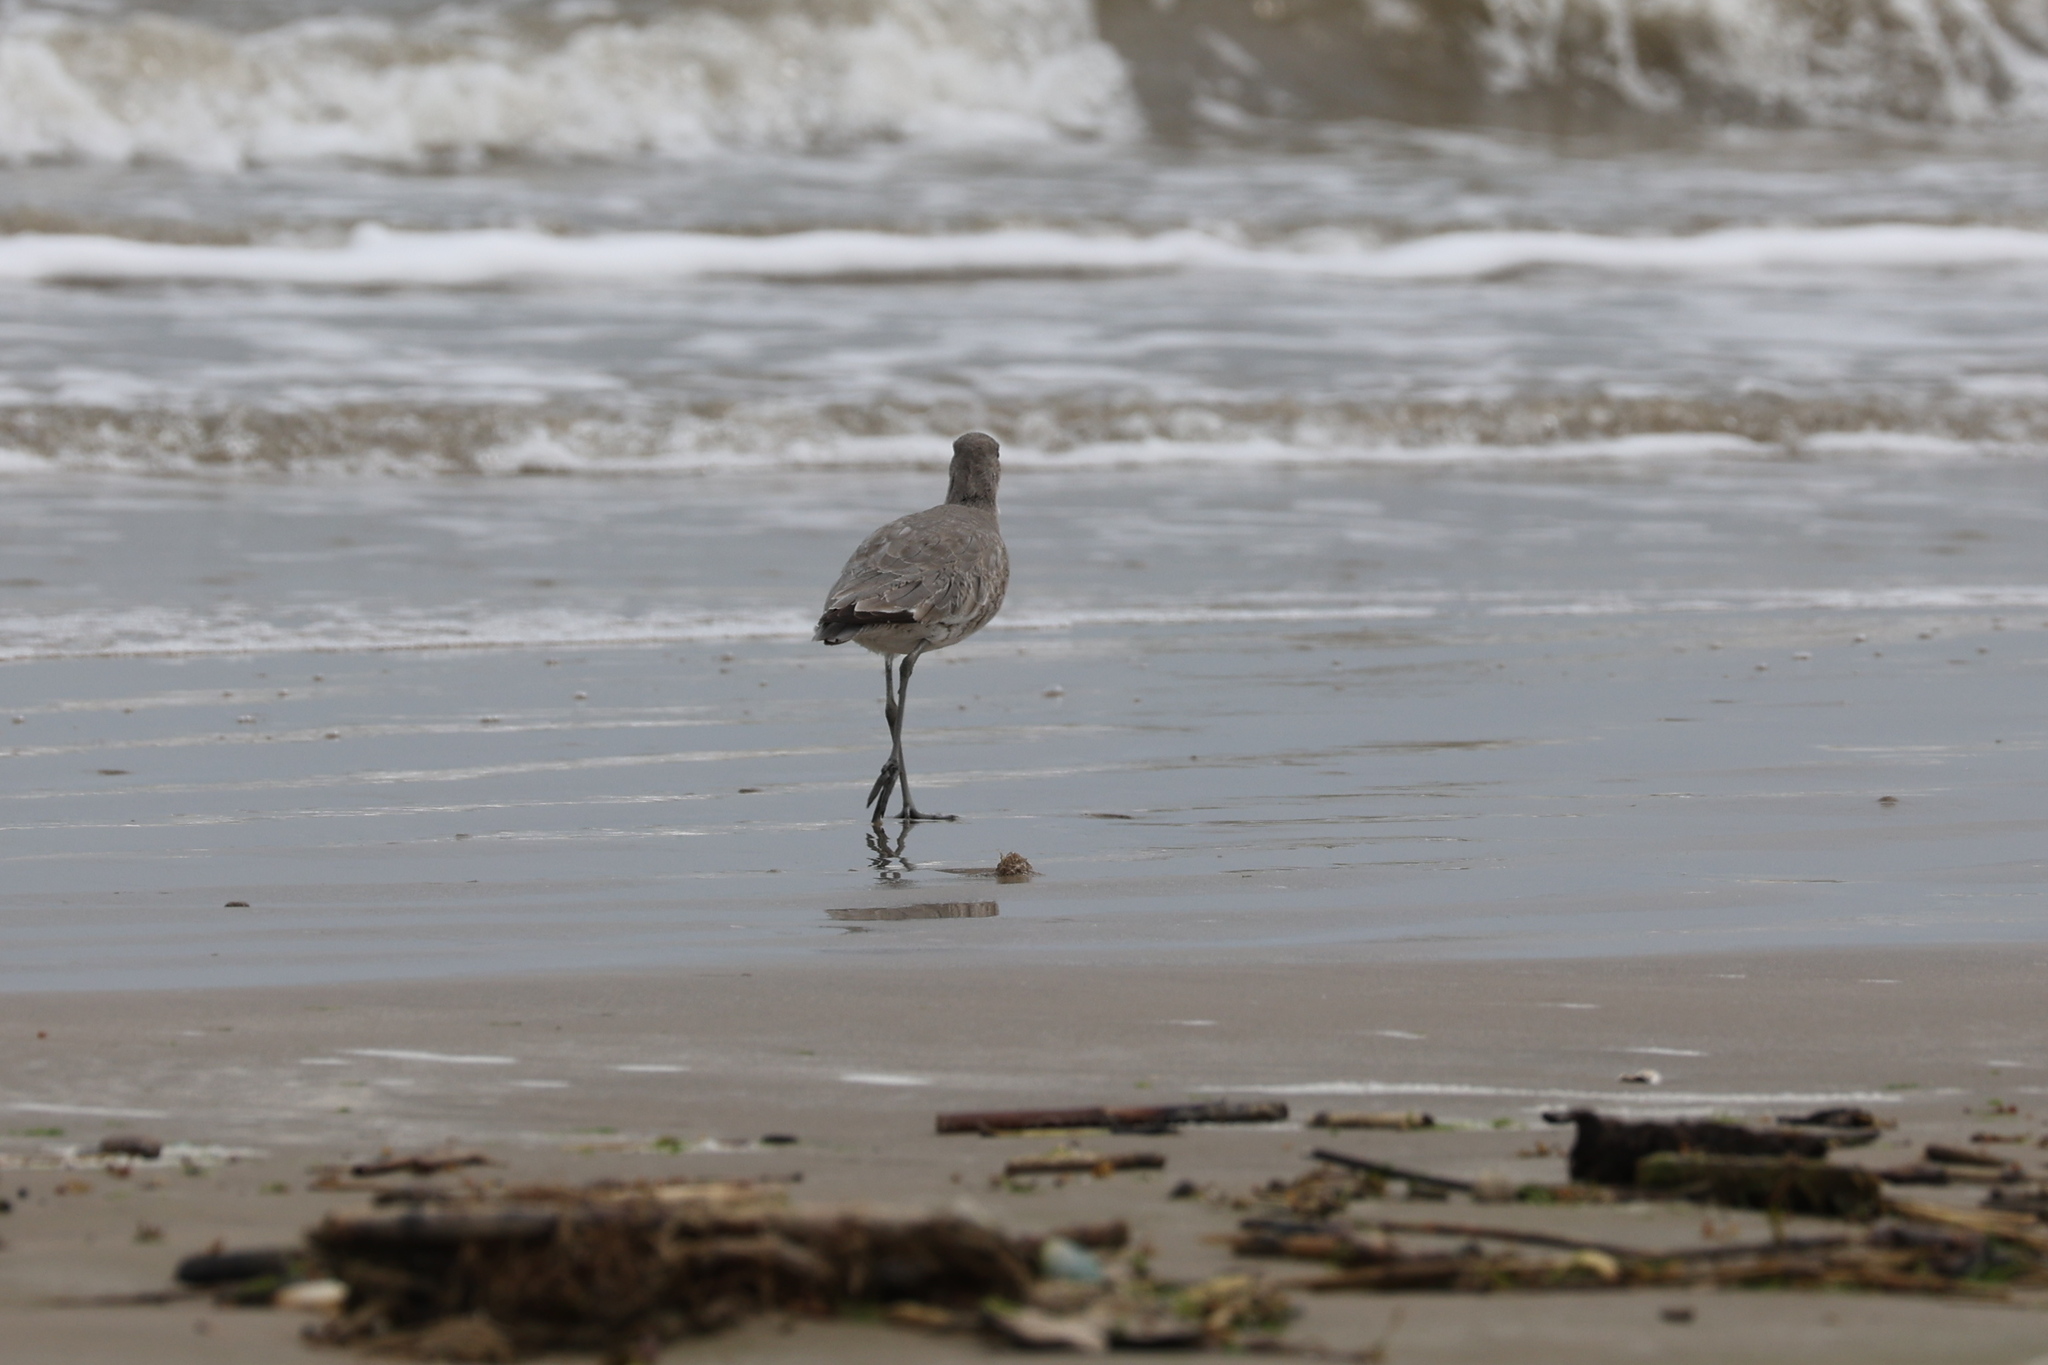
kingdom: Animalia
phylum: Chordata
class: Aves
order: Charadriiformes
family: Scolopacidae
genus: Tringa
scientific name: Tringa semipalmata
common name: Willet
